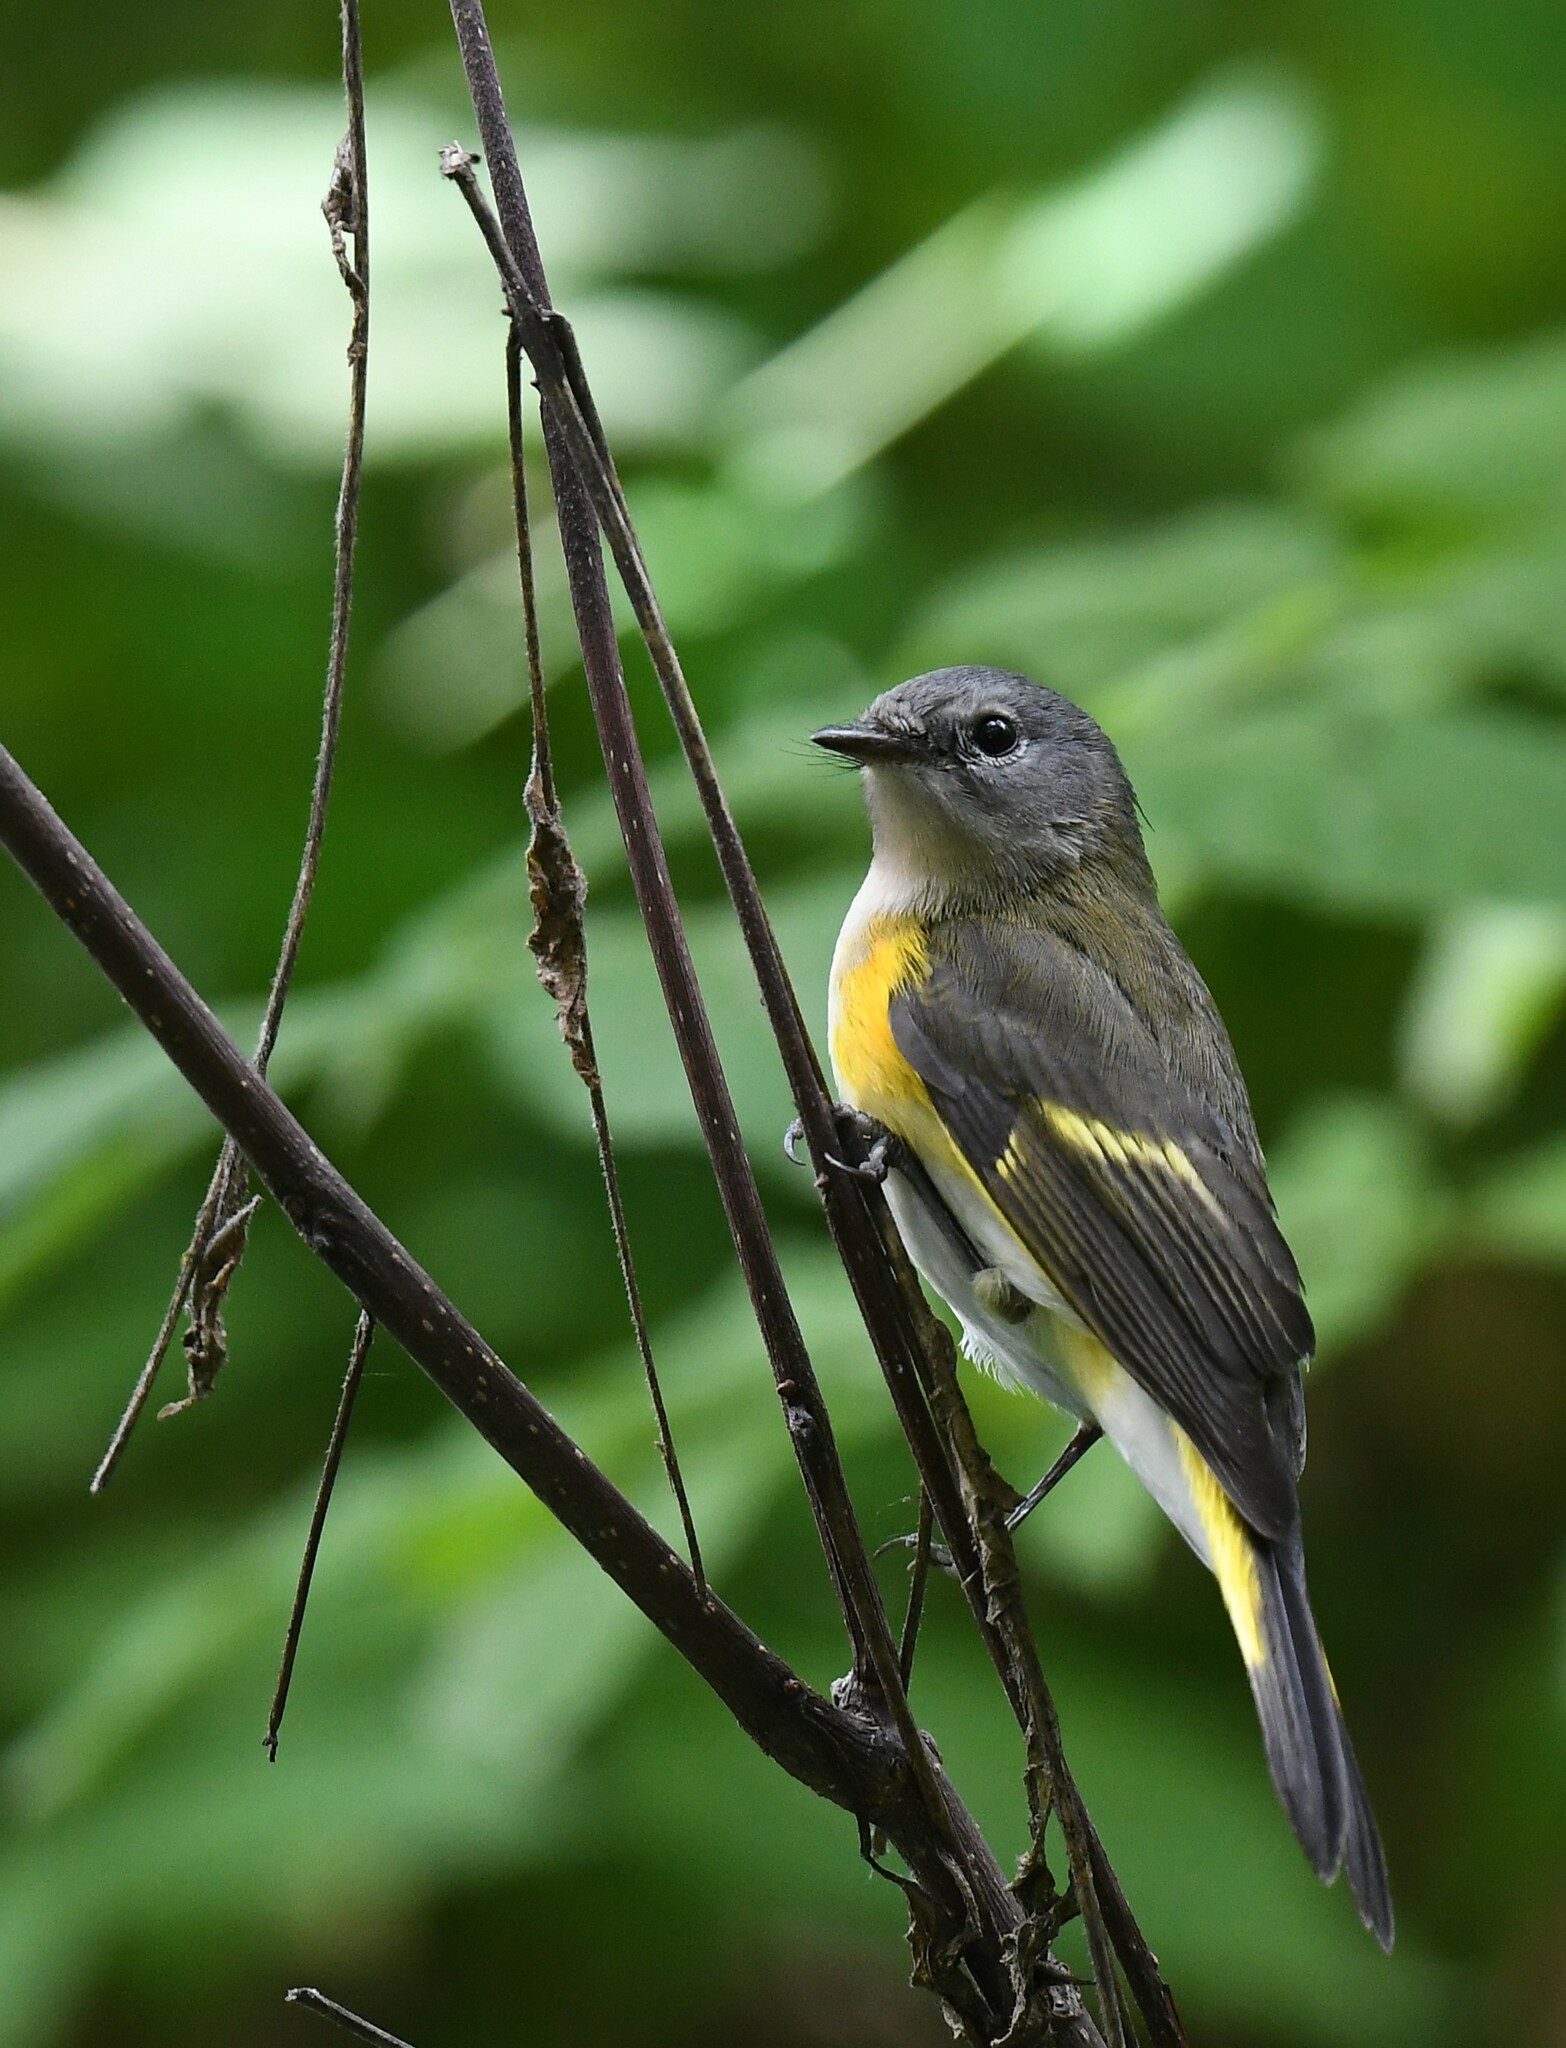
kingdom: Animalia
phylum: Chordata
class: Aves
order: Passeriformes
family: Parulidae
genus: Setophaga
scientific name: Setophaga ruticilla
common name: American redstart
